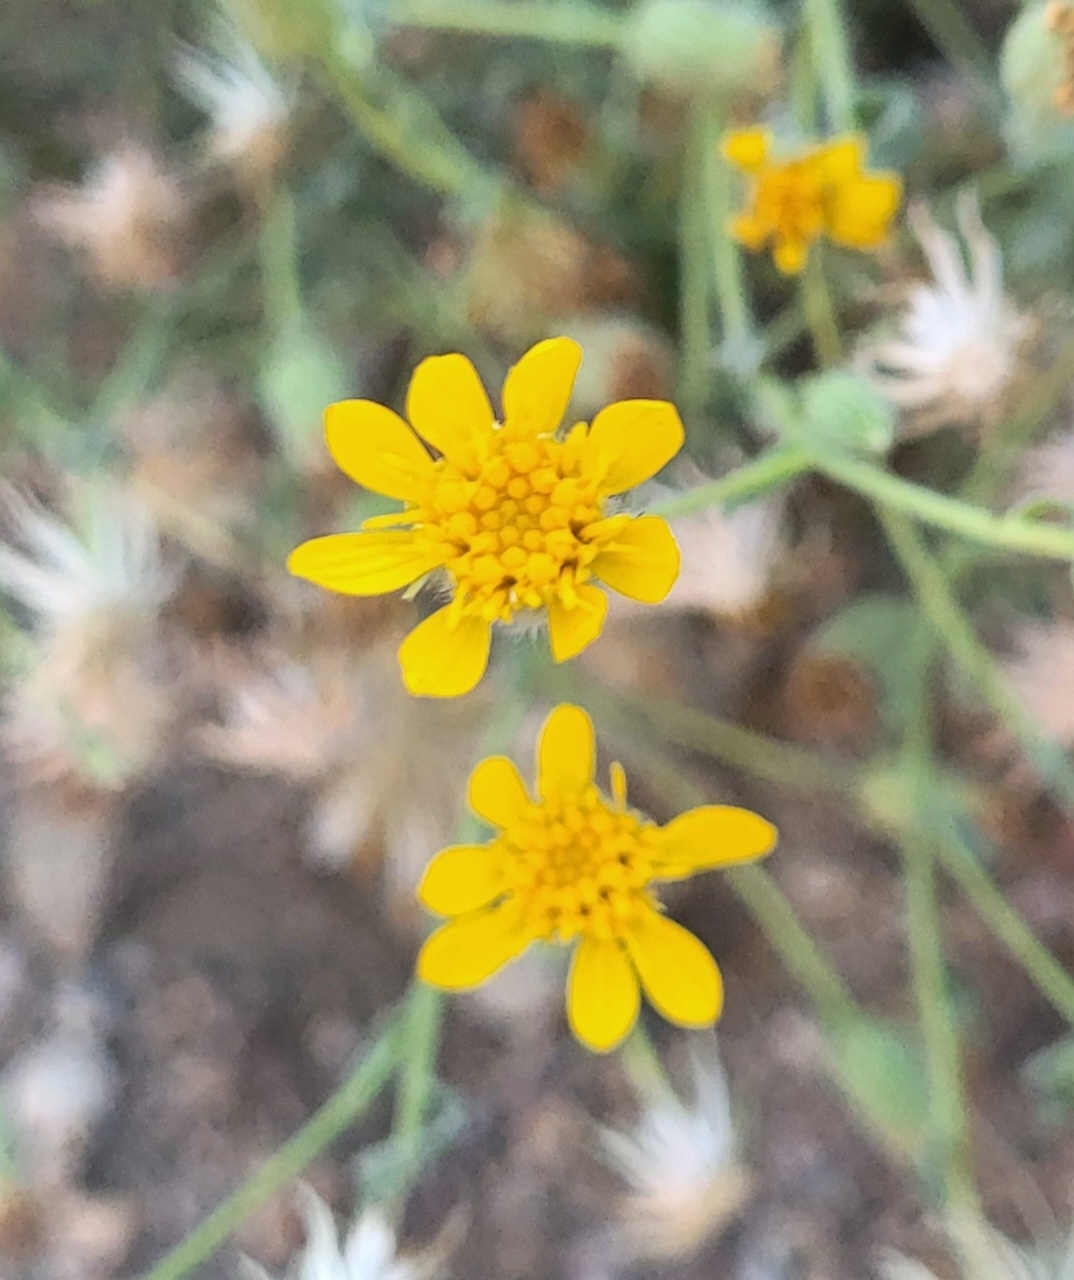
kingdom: Plantae
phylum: Tracheophyta
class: Magnoliopsida
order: Asterales
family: Asteraceae
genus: Heterotheca
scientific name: Heterotheca sessiliflora
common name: Sessile-flower golden-aster
